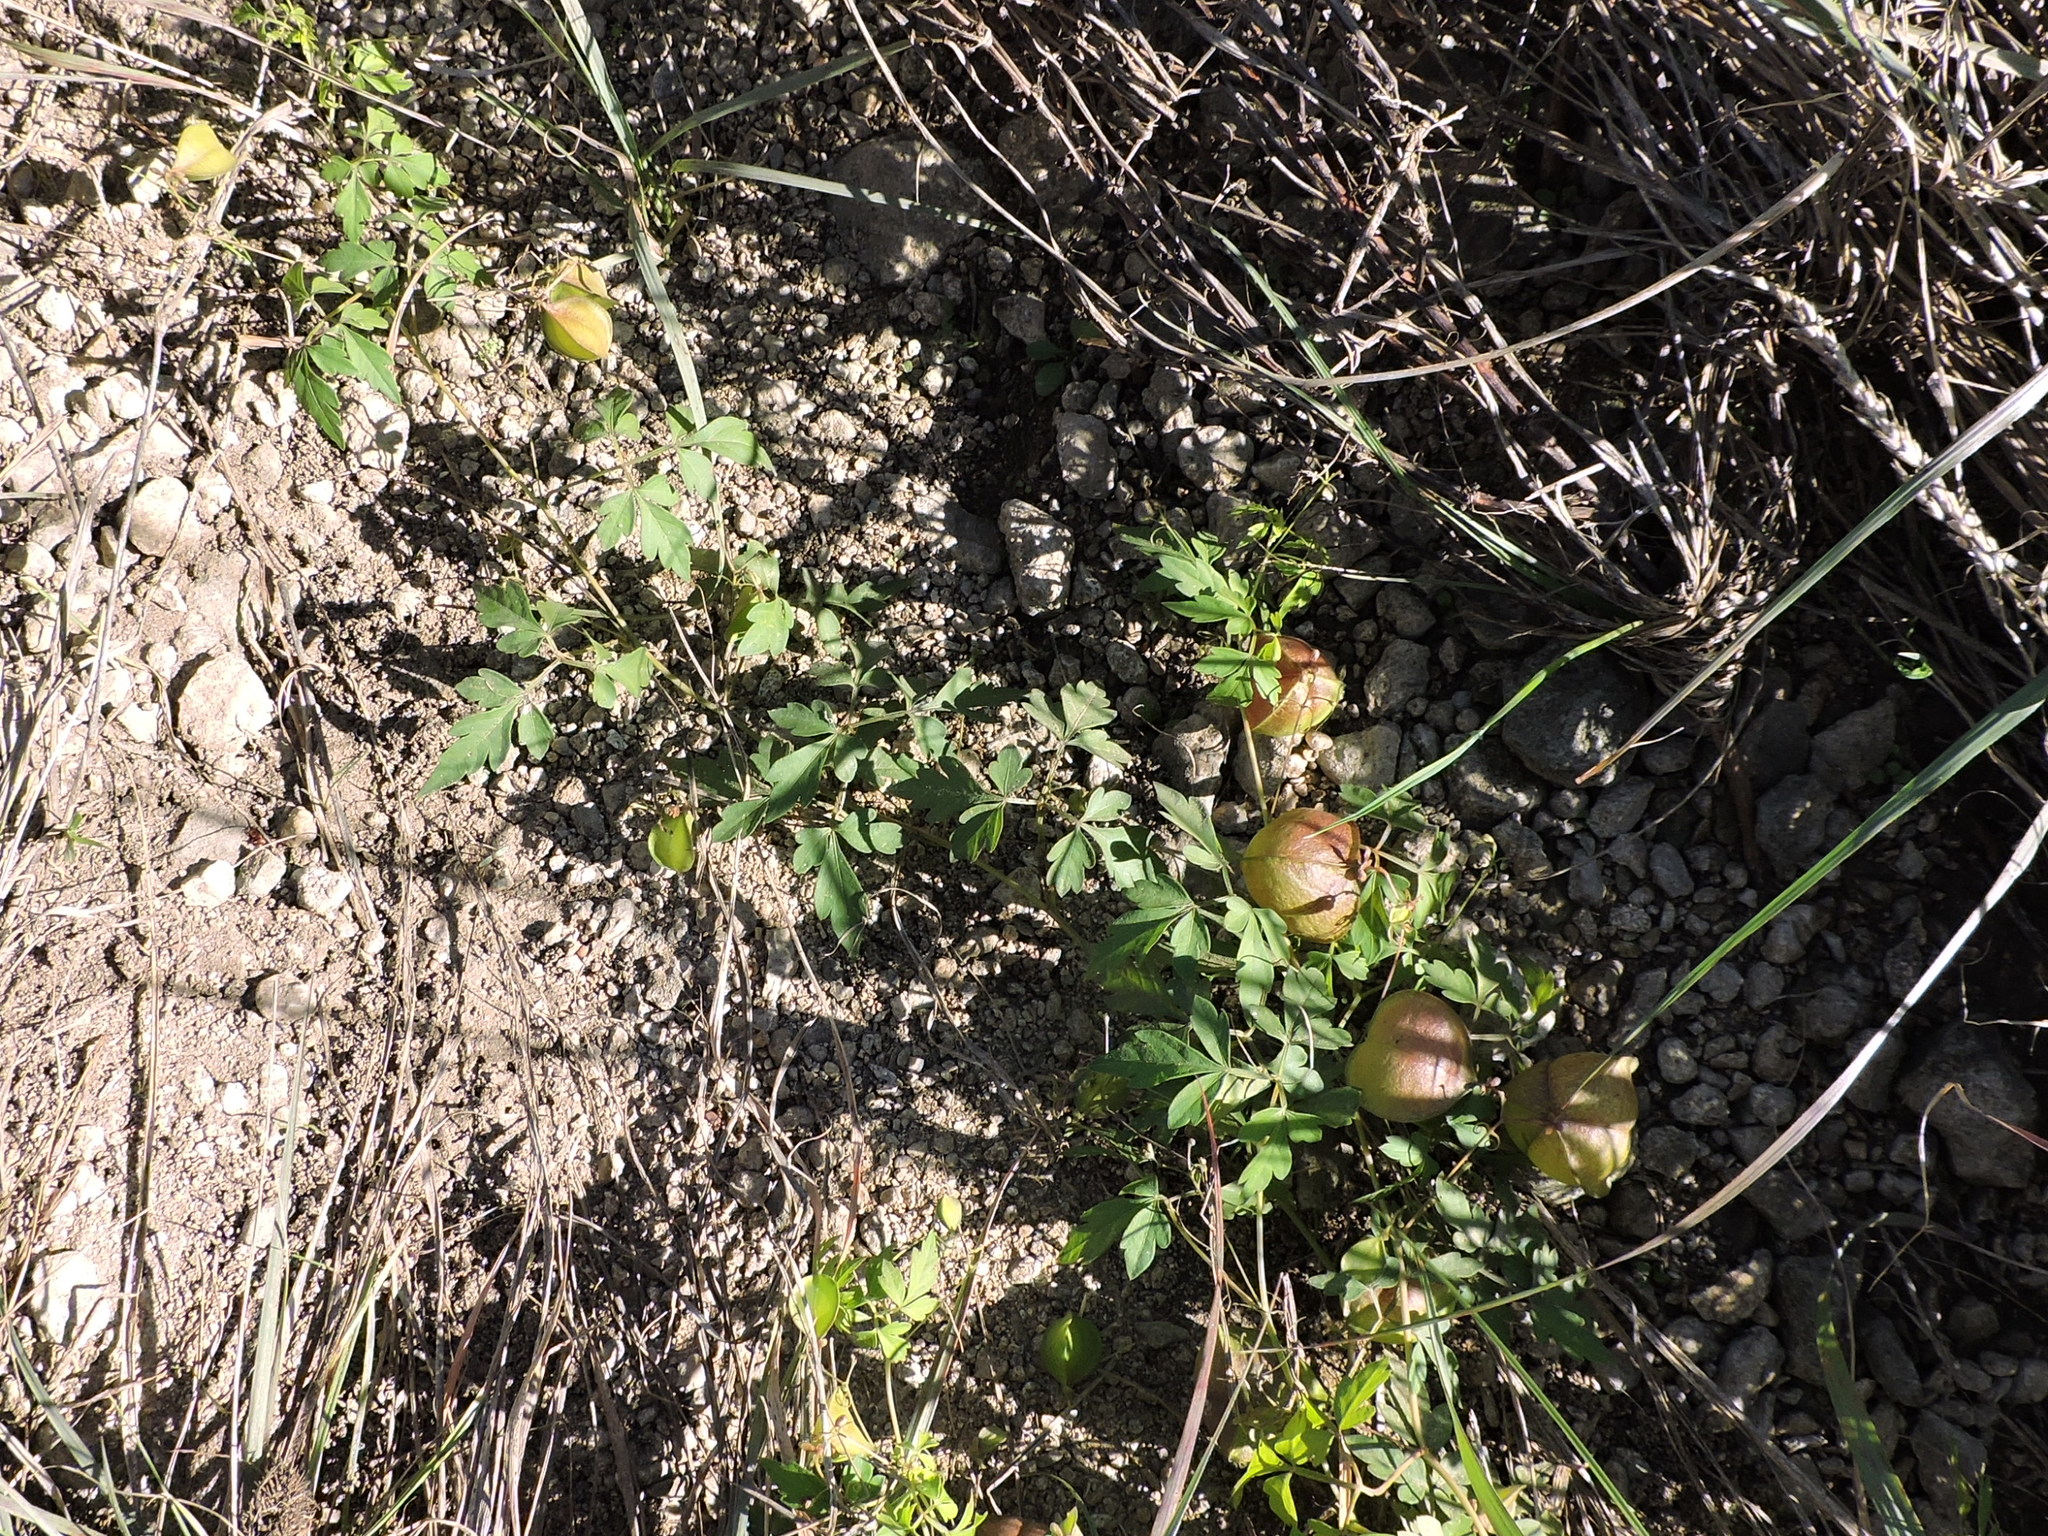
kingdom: Plantae
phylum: Tracheophyta
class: Magnoliopsida
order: Sapindales
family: Sapindaceae
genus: Cardiospermum
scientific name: Cardiospermum halicacabum
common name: Balloon vine
